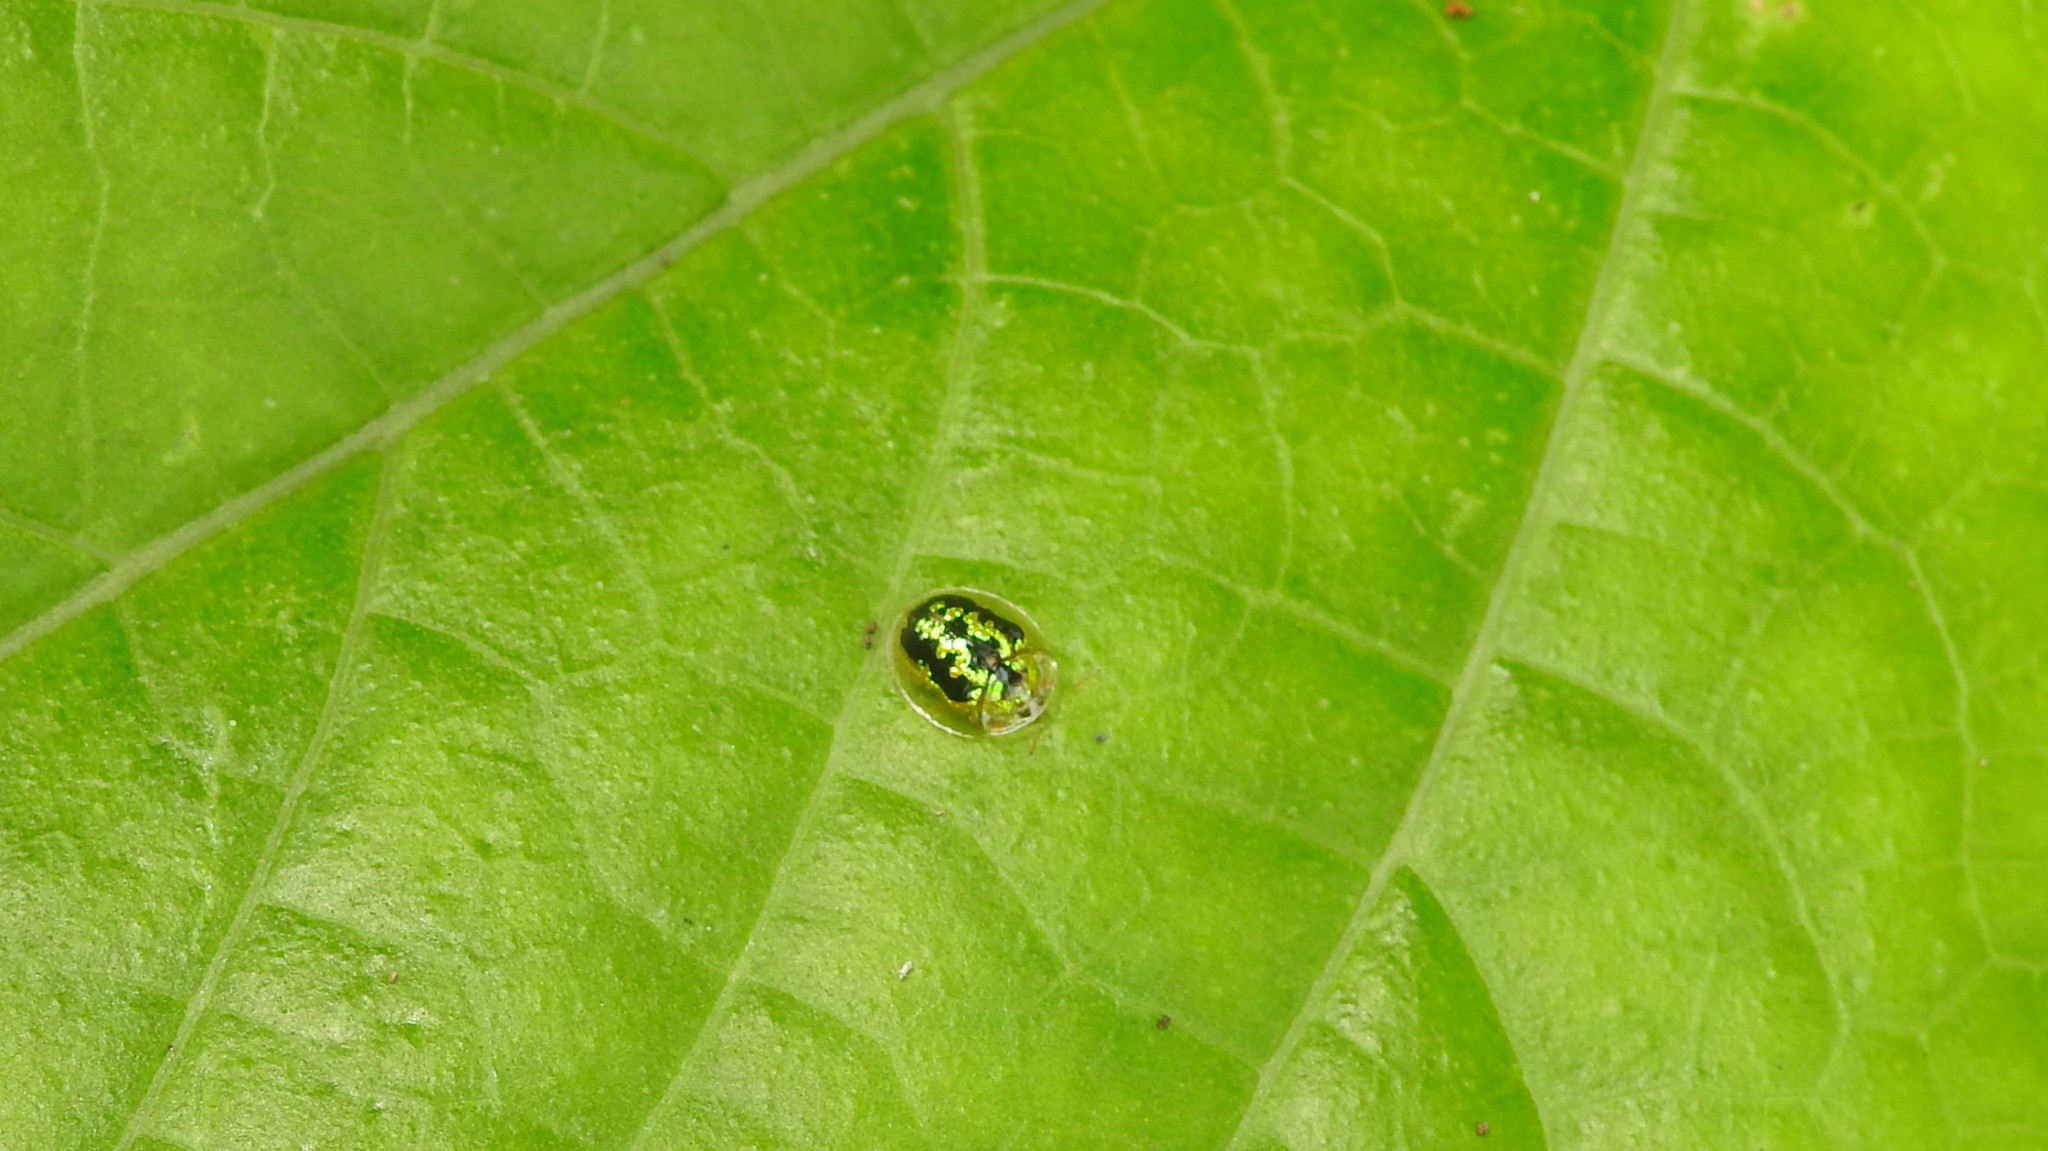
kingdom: Animalia
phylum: Arthropoda
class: Insecta
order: Coleoptera
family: Chrysomelidae
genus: Cassida
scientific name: Cassida circumdata
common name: Tortoise beetle
